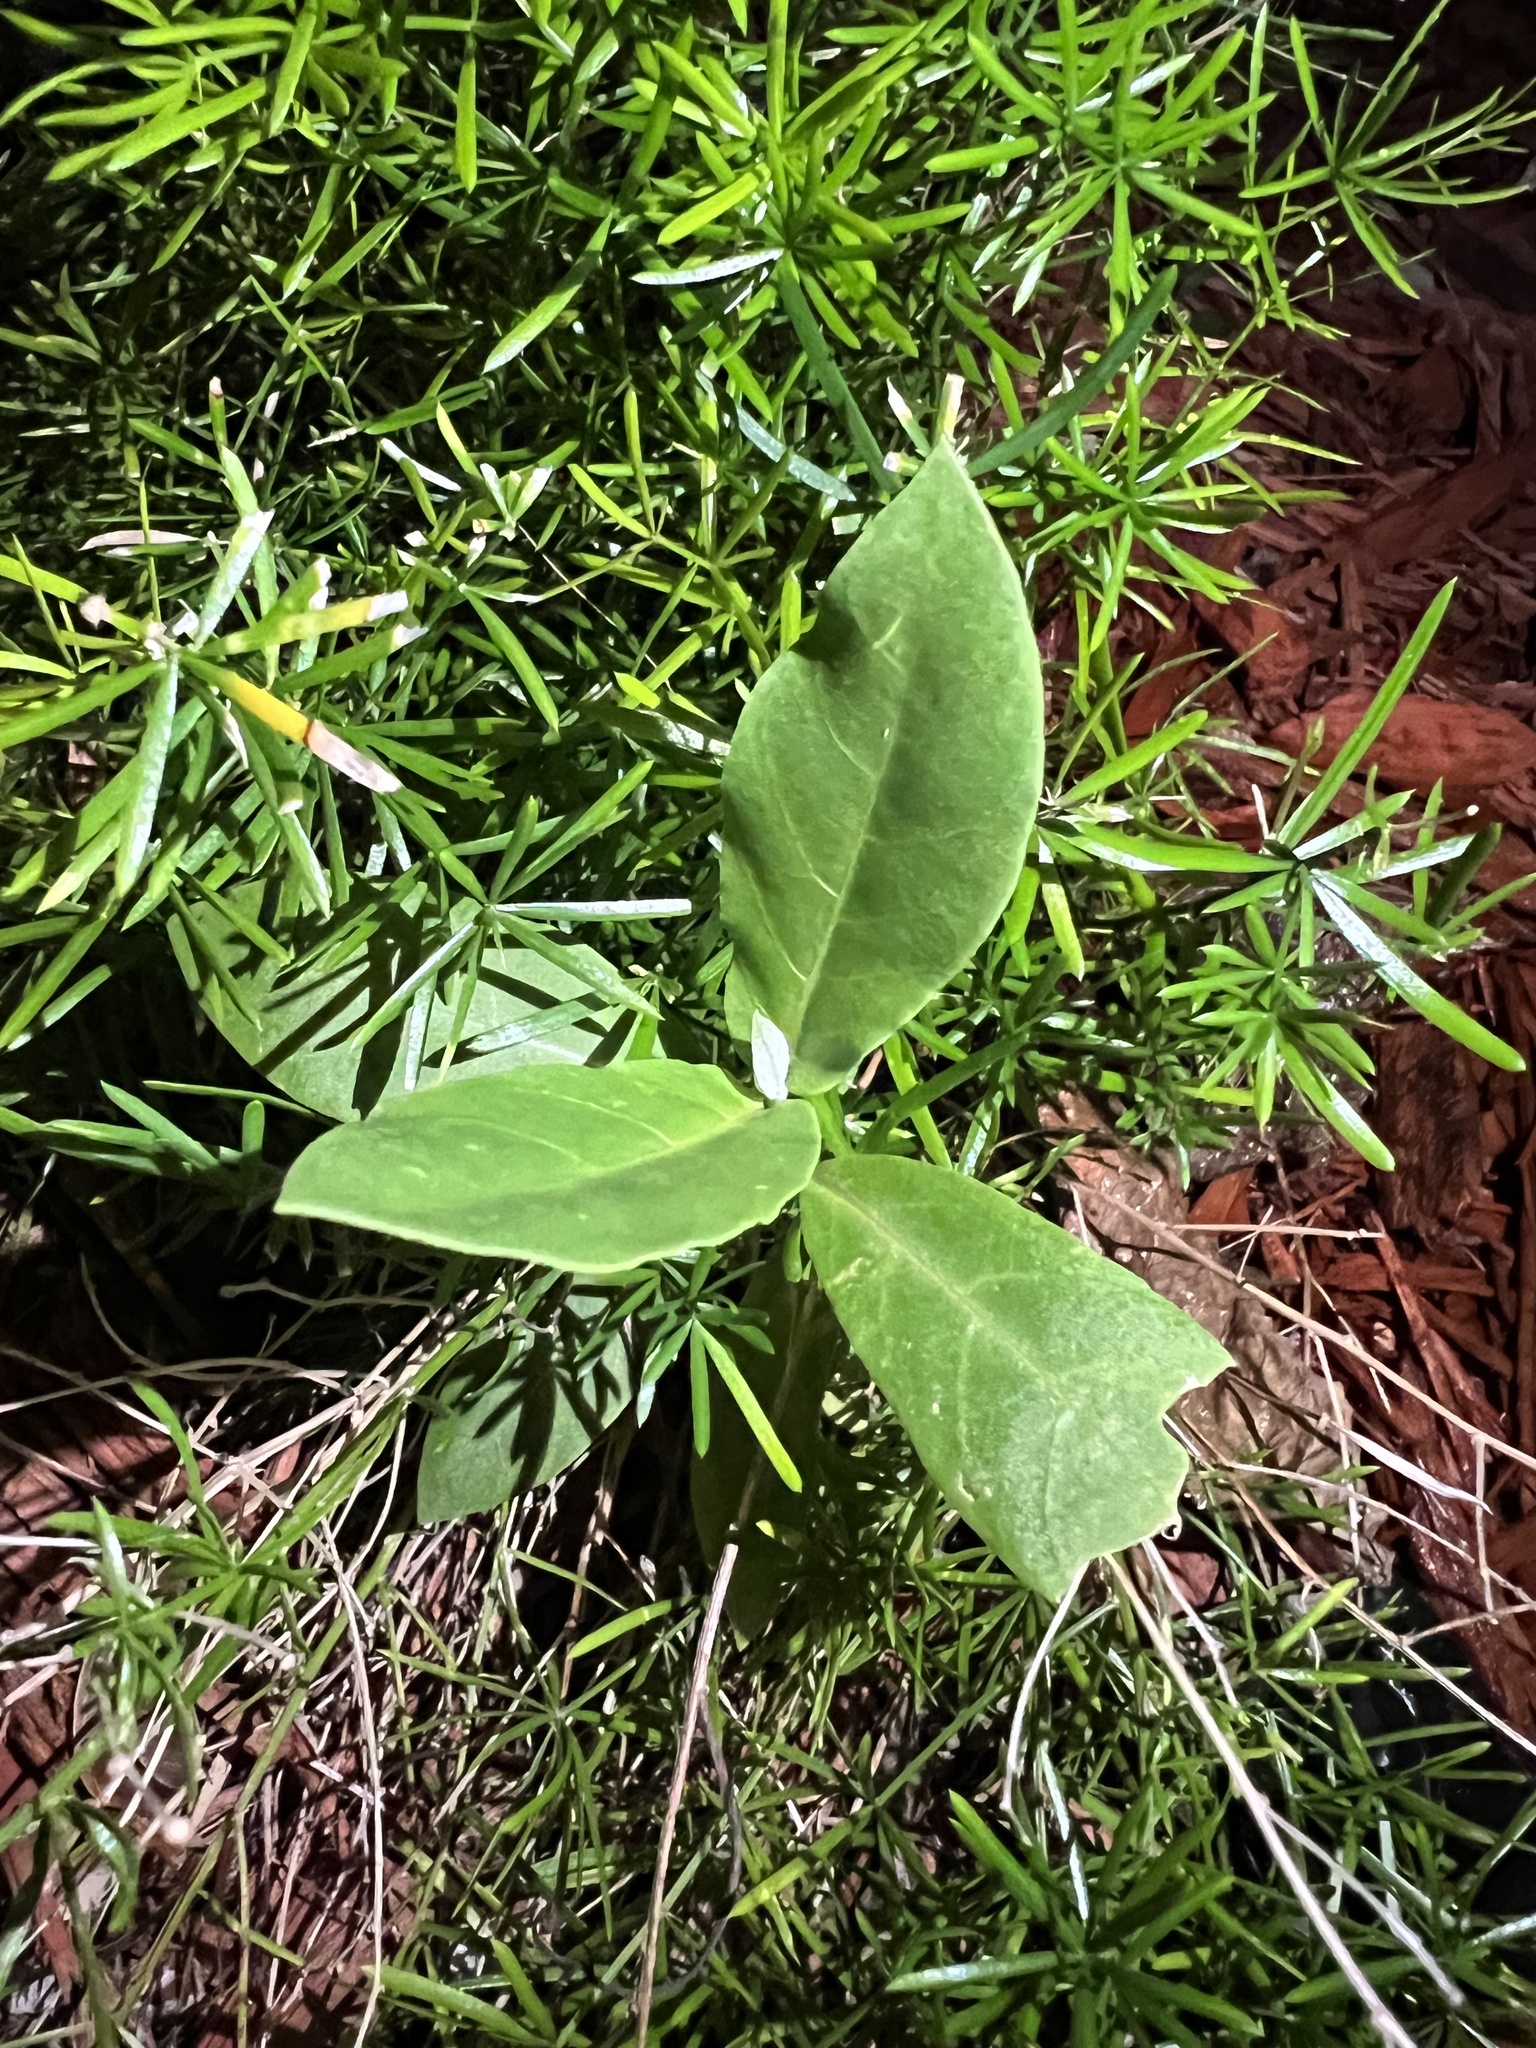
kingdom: Plantae
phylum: Tracheophyta
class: Magnoliopsida
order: Gentianales
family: Apocynaceae
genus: Calotropis
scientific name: Calotropis procera
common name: Roostertree
